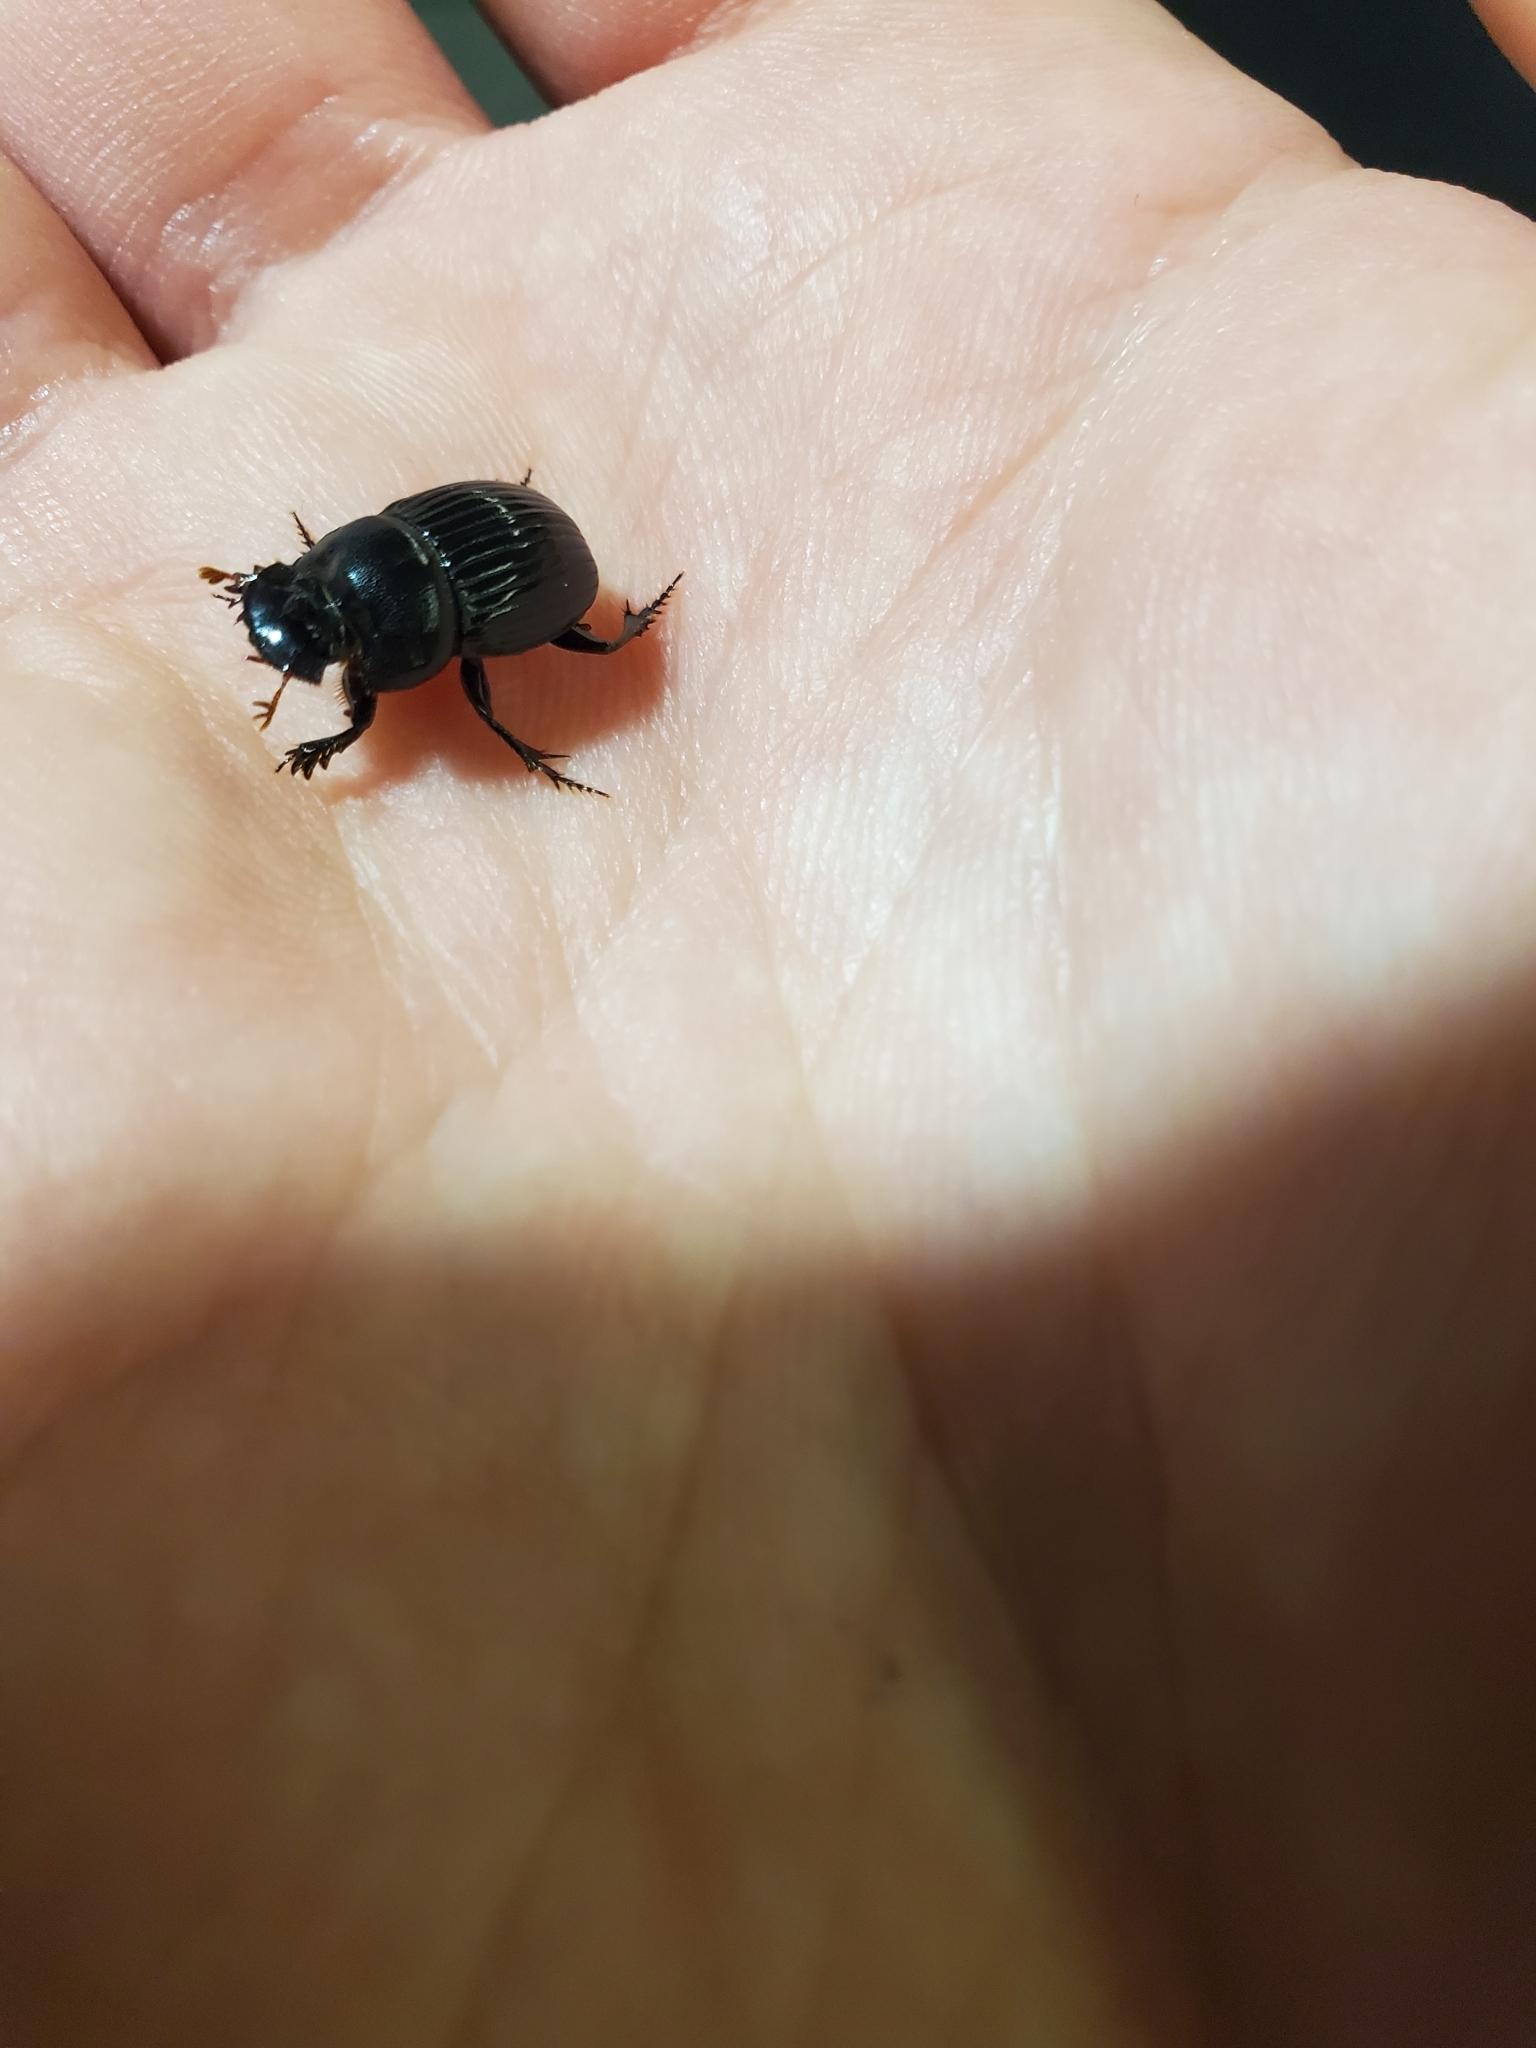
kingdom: Animalia
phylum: Arthropoda
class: Insecta
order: Coleoptera
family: Scarabaeidae
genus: Copris
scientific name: Copris fricator
